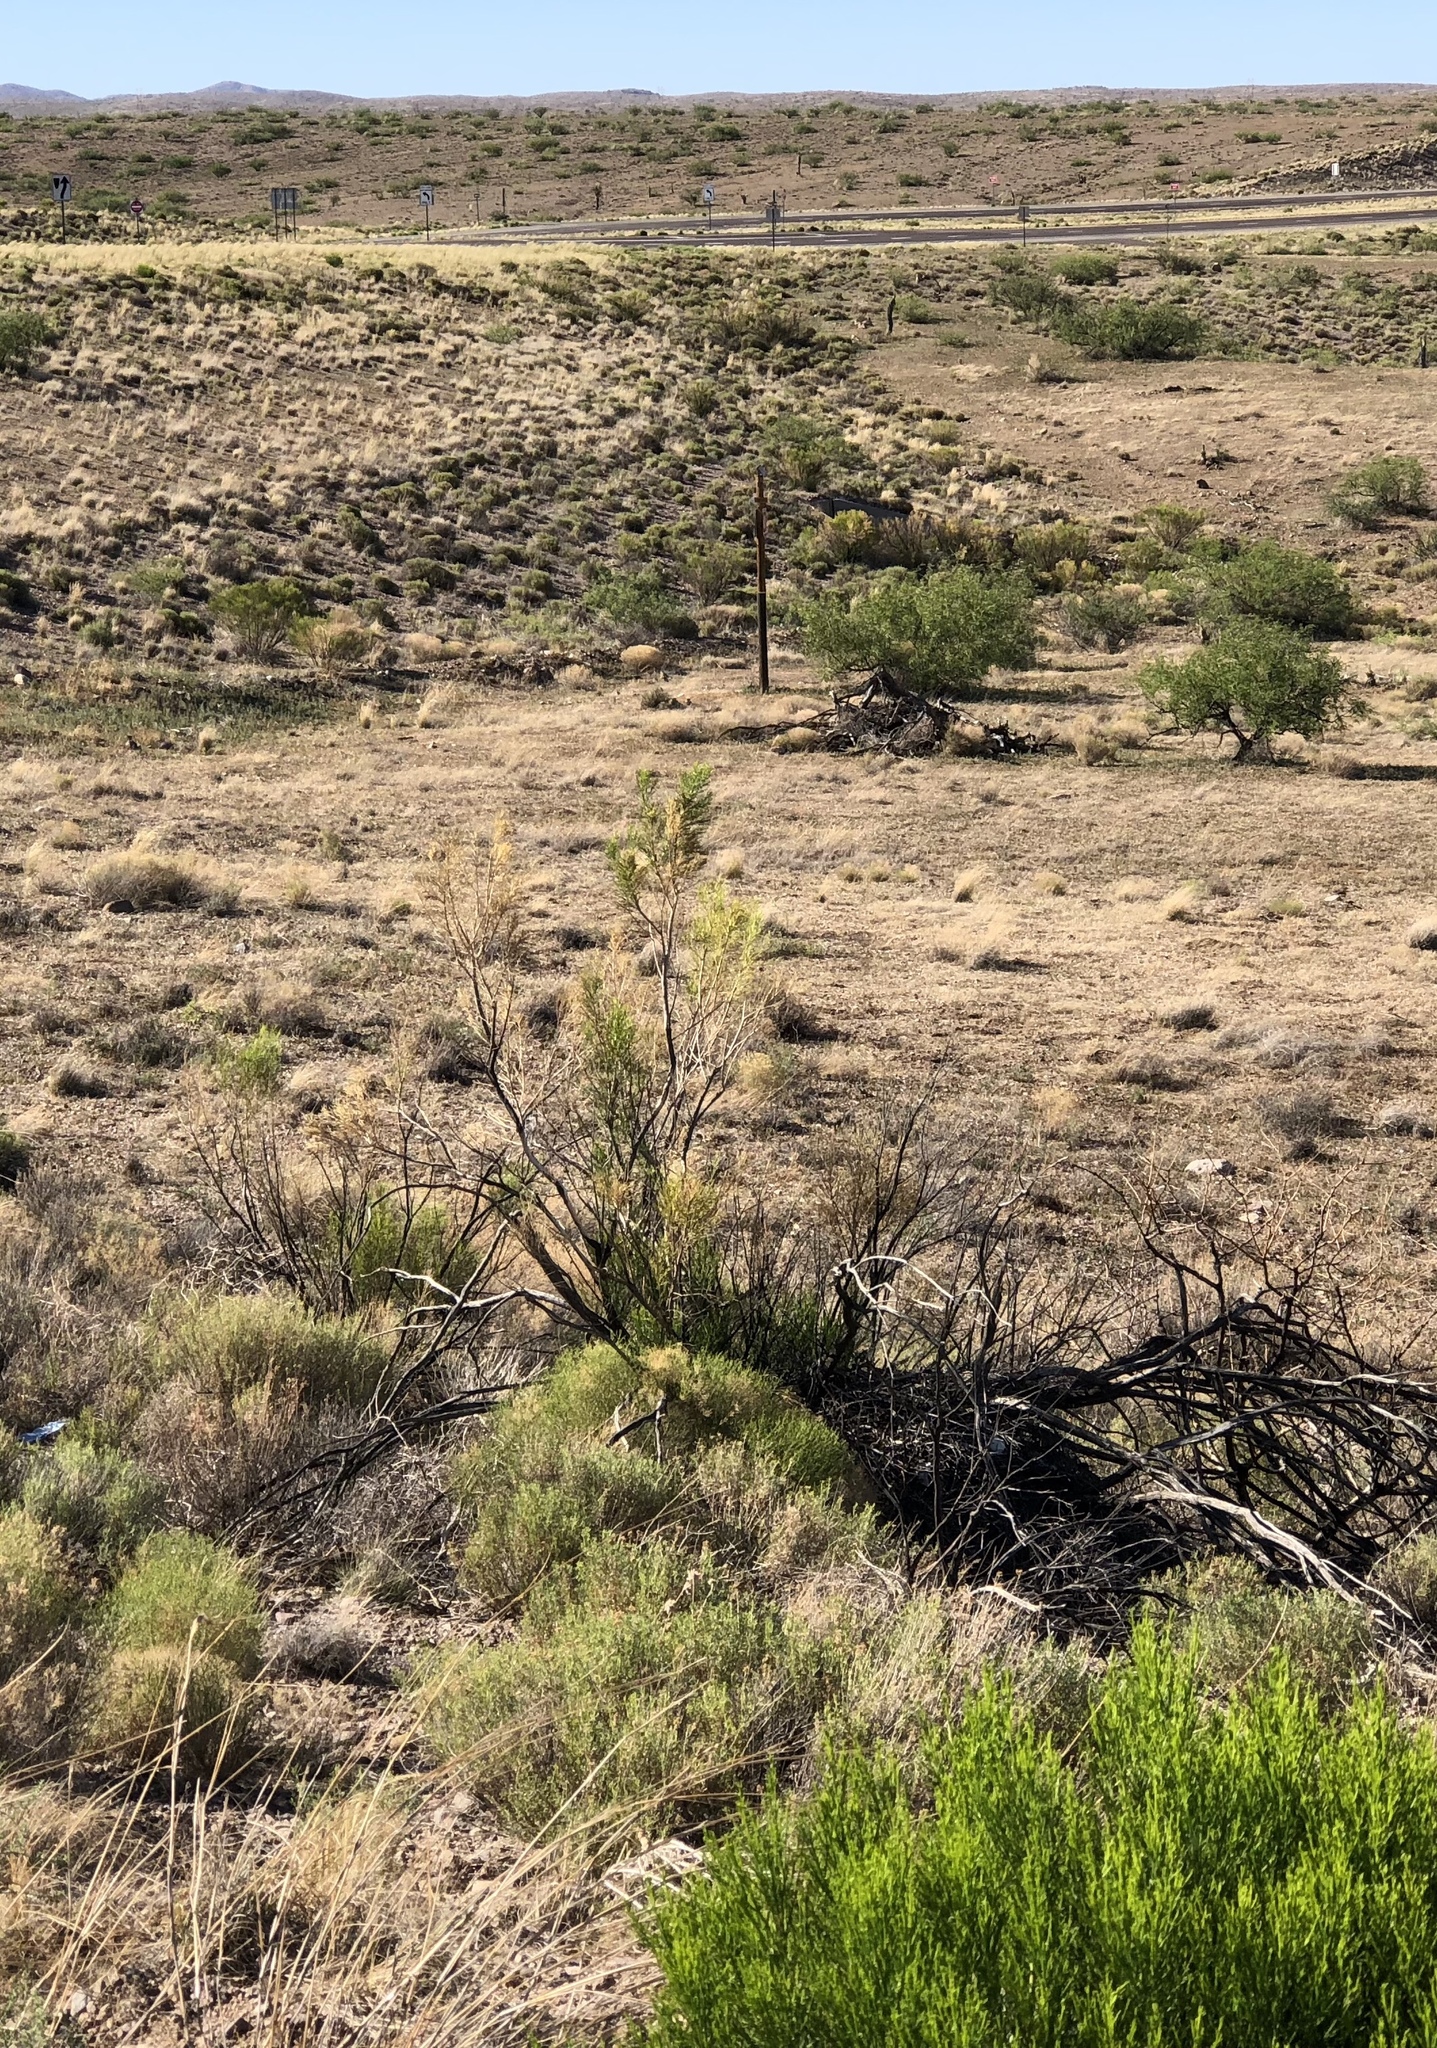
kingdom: Plantae
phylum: Tracheophyta
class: Magnoliopsida
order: Asterales
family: Asteraceae
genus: Baccharis
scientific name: Baccharis sarothroides
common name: Desert-broom
